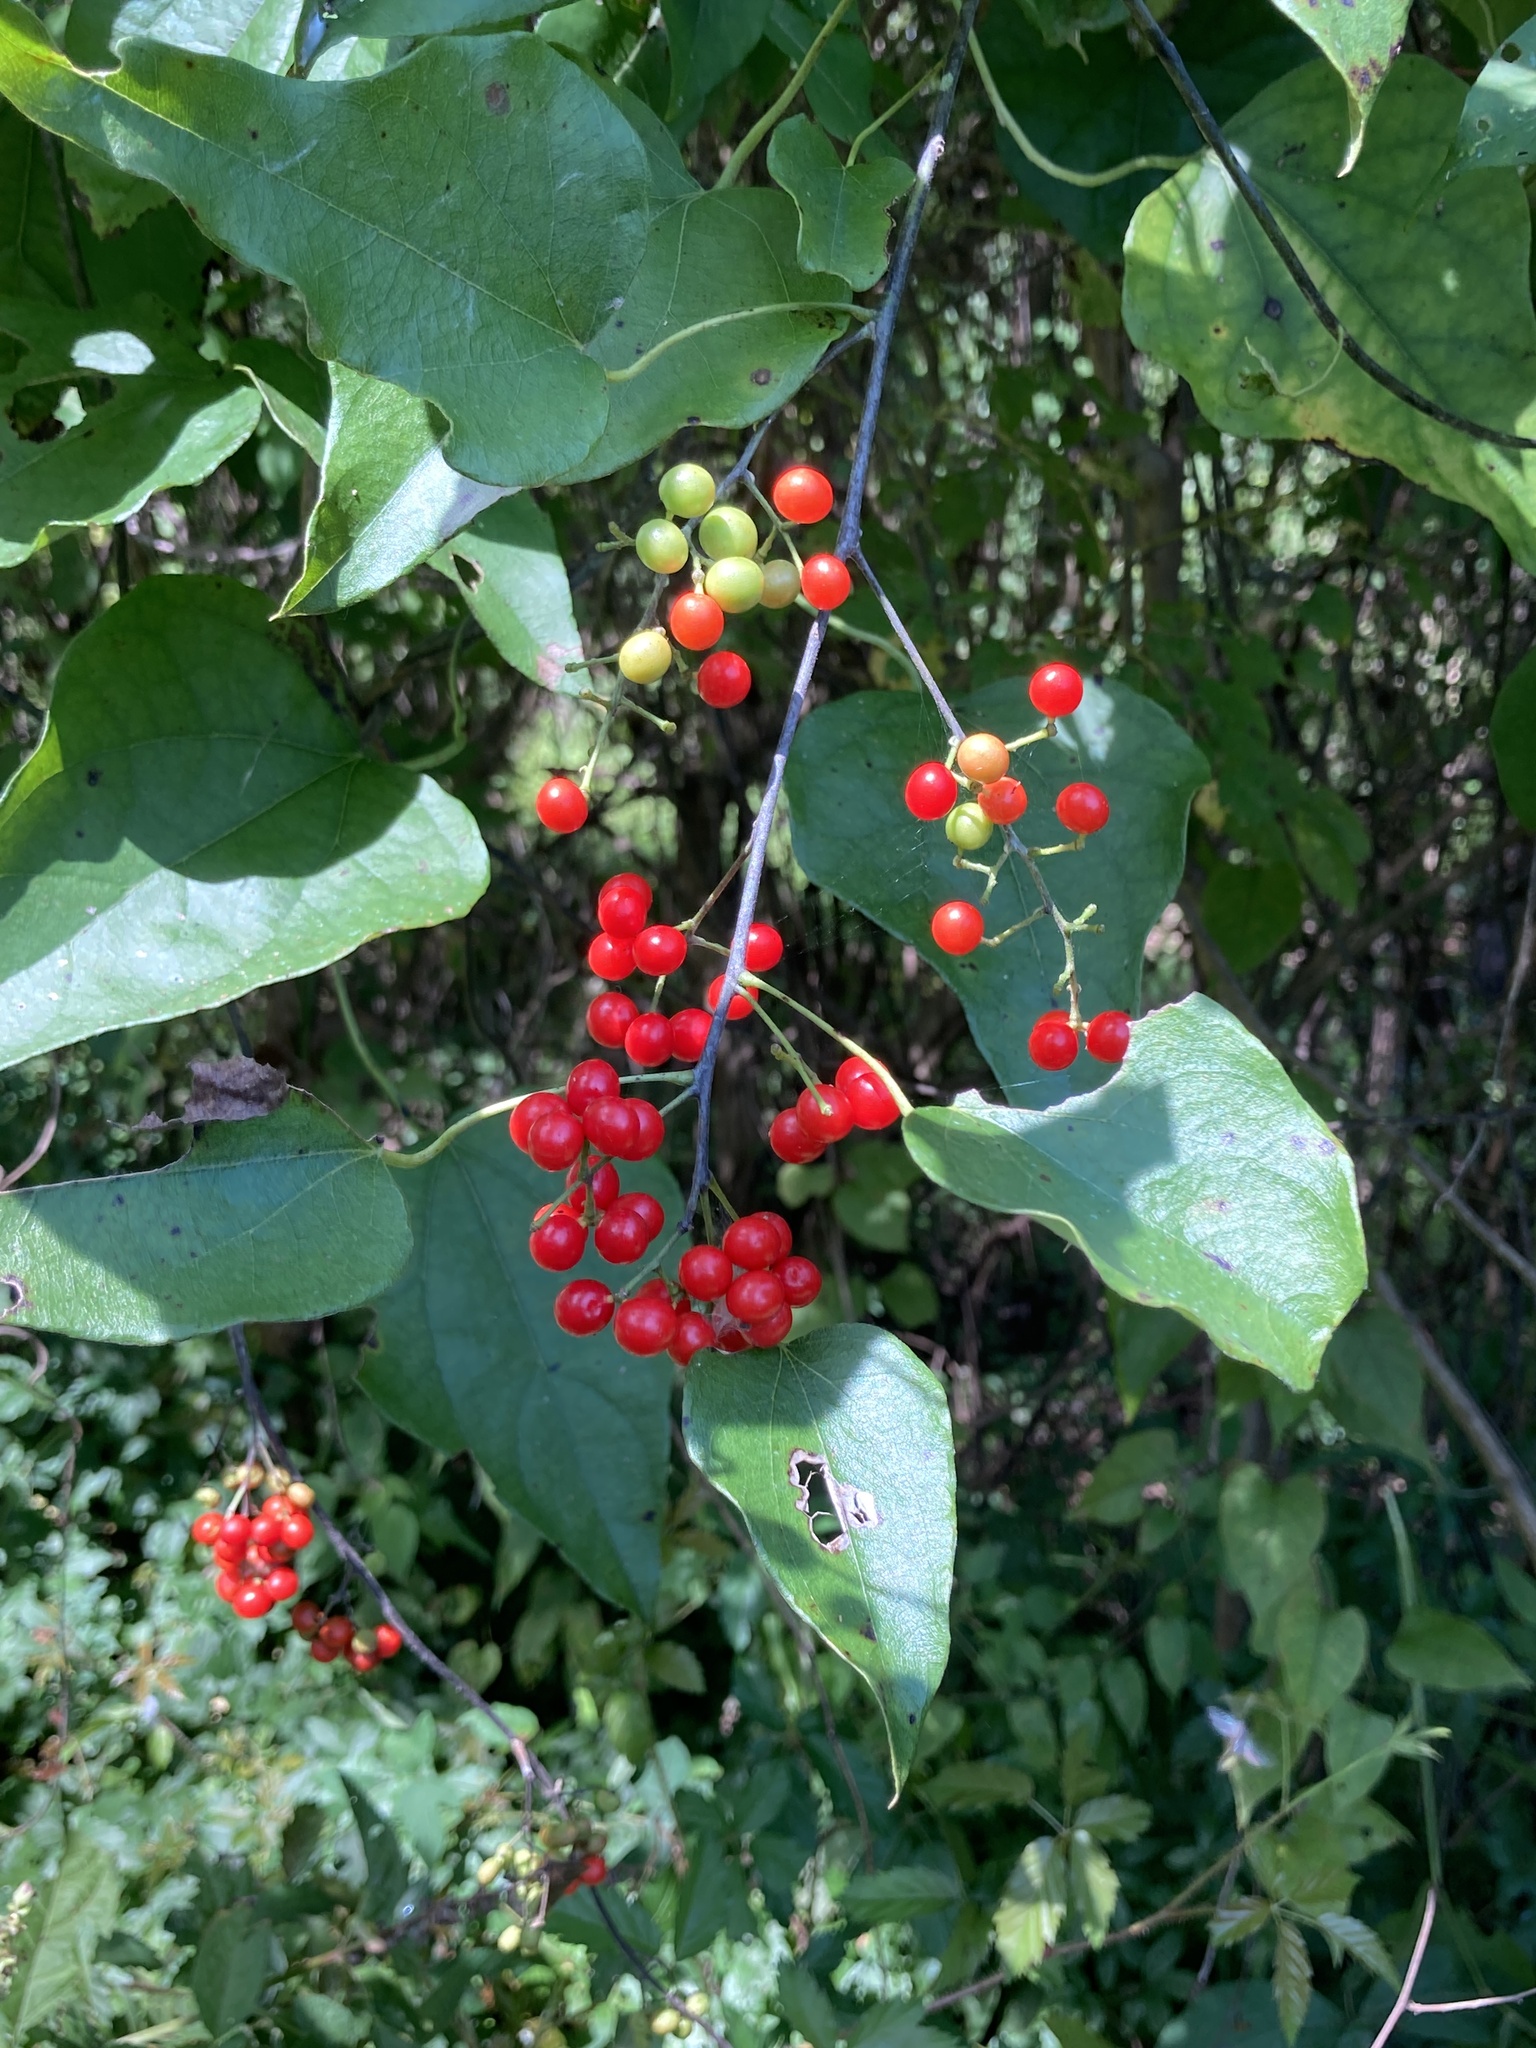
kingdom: Plantae
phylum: Tracheophyta
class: Magnoliopsida
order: Ranunculales
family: Menispermaceae
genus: Cocculus
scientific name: Cocculus carolinus
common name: Carolina moonseed
